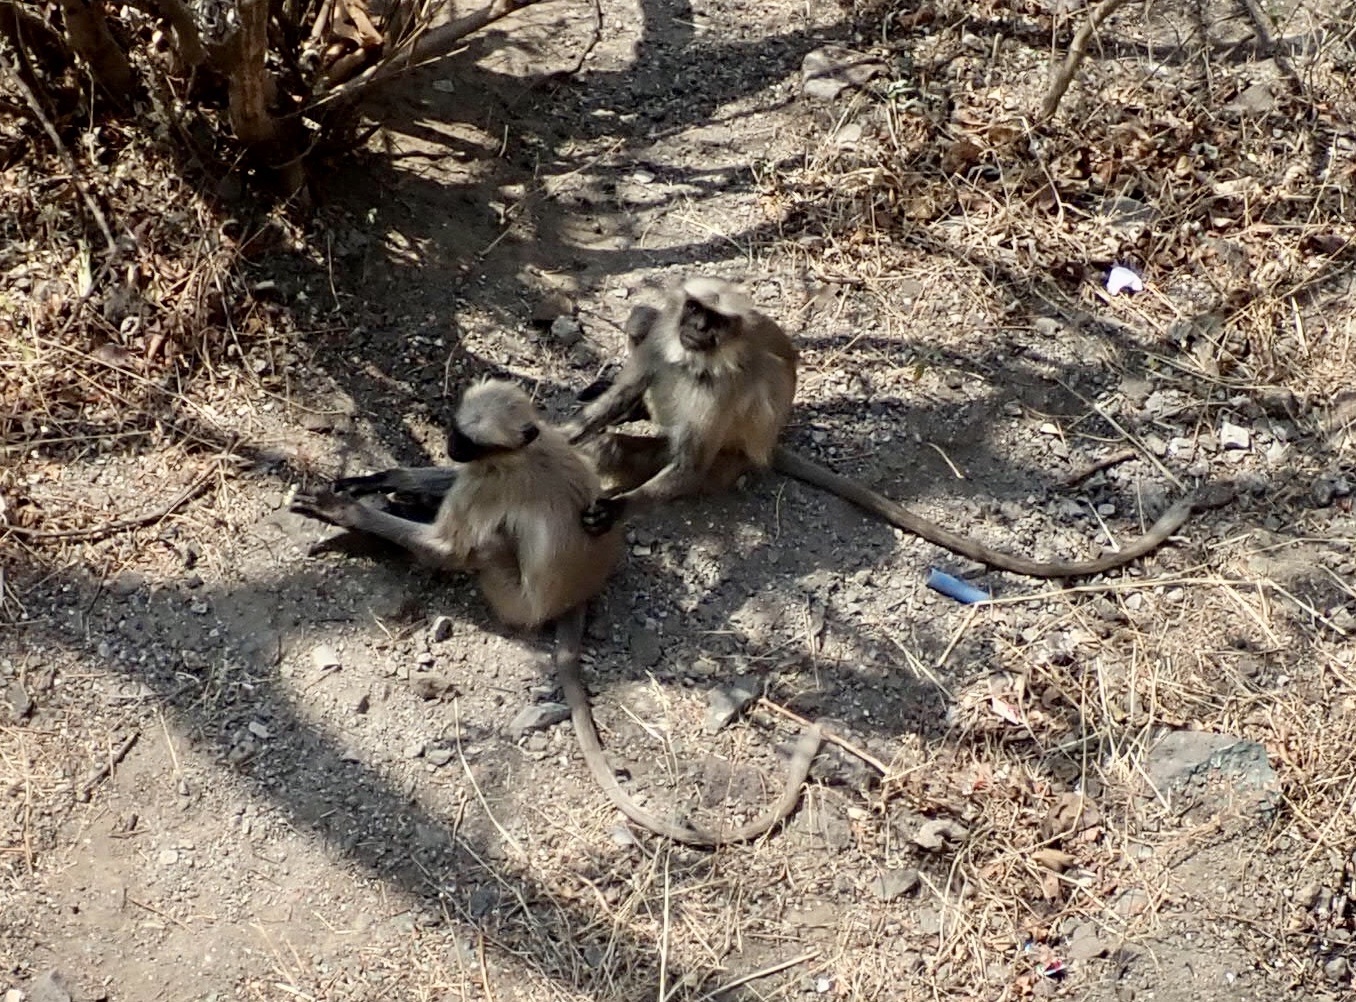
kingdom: Animalia
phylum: Chordata
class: Mammalia
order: Primates
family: Cercopithecidae
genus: Semnopithecus
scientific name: Semnopithecus hypoleucos
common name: Black-footed gray langur
